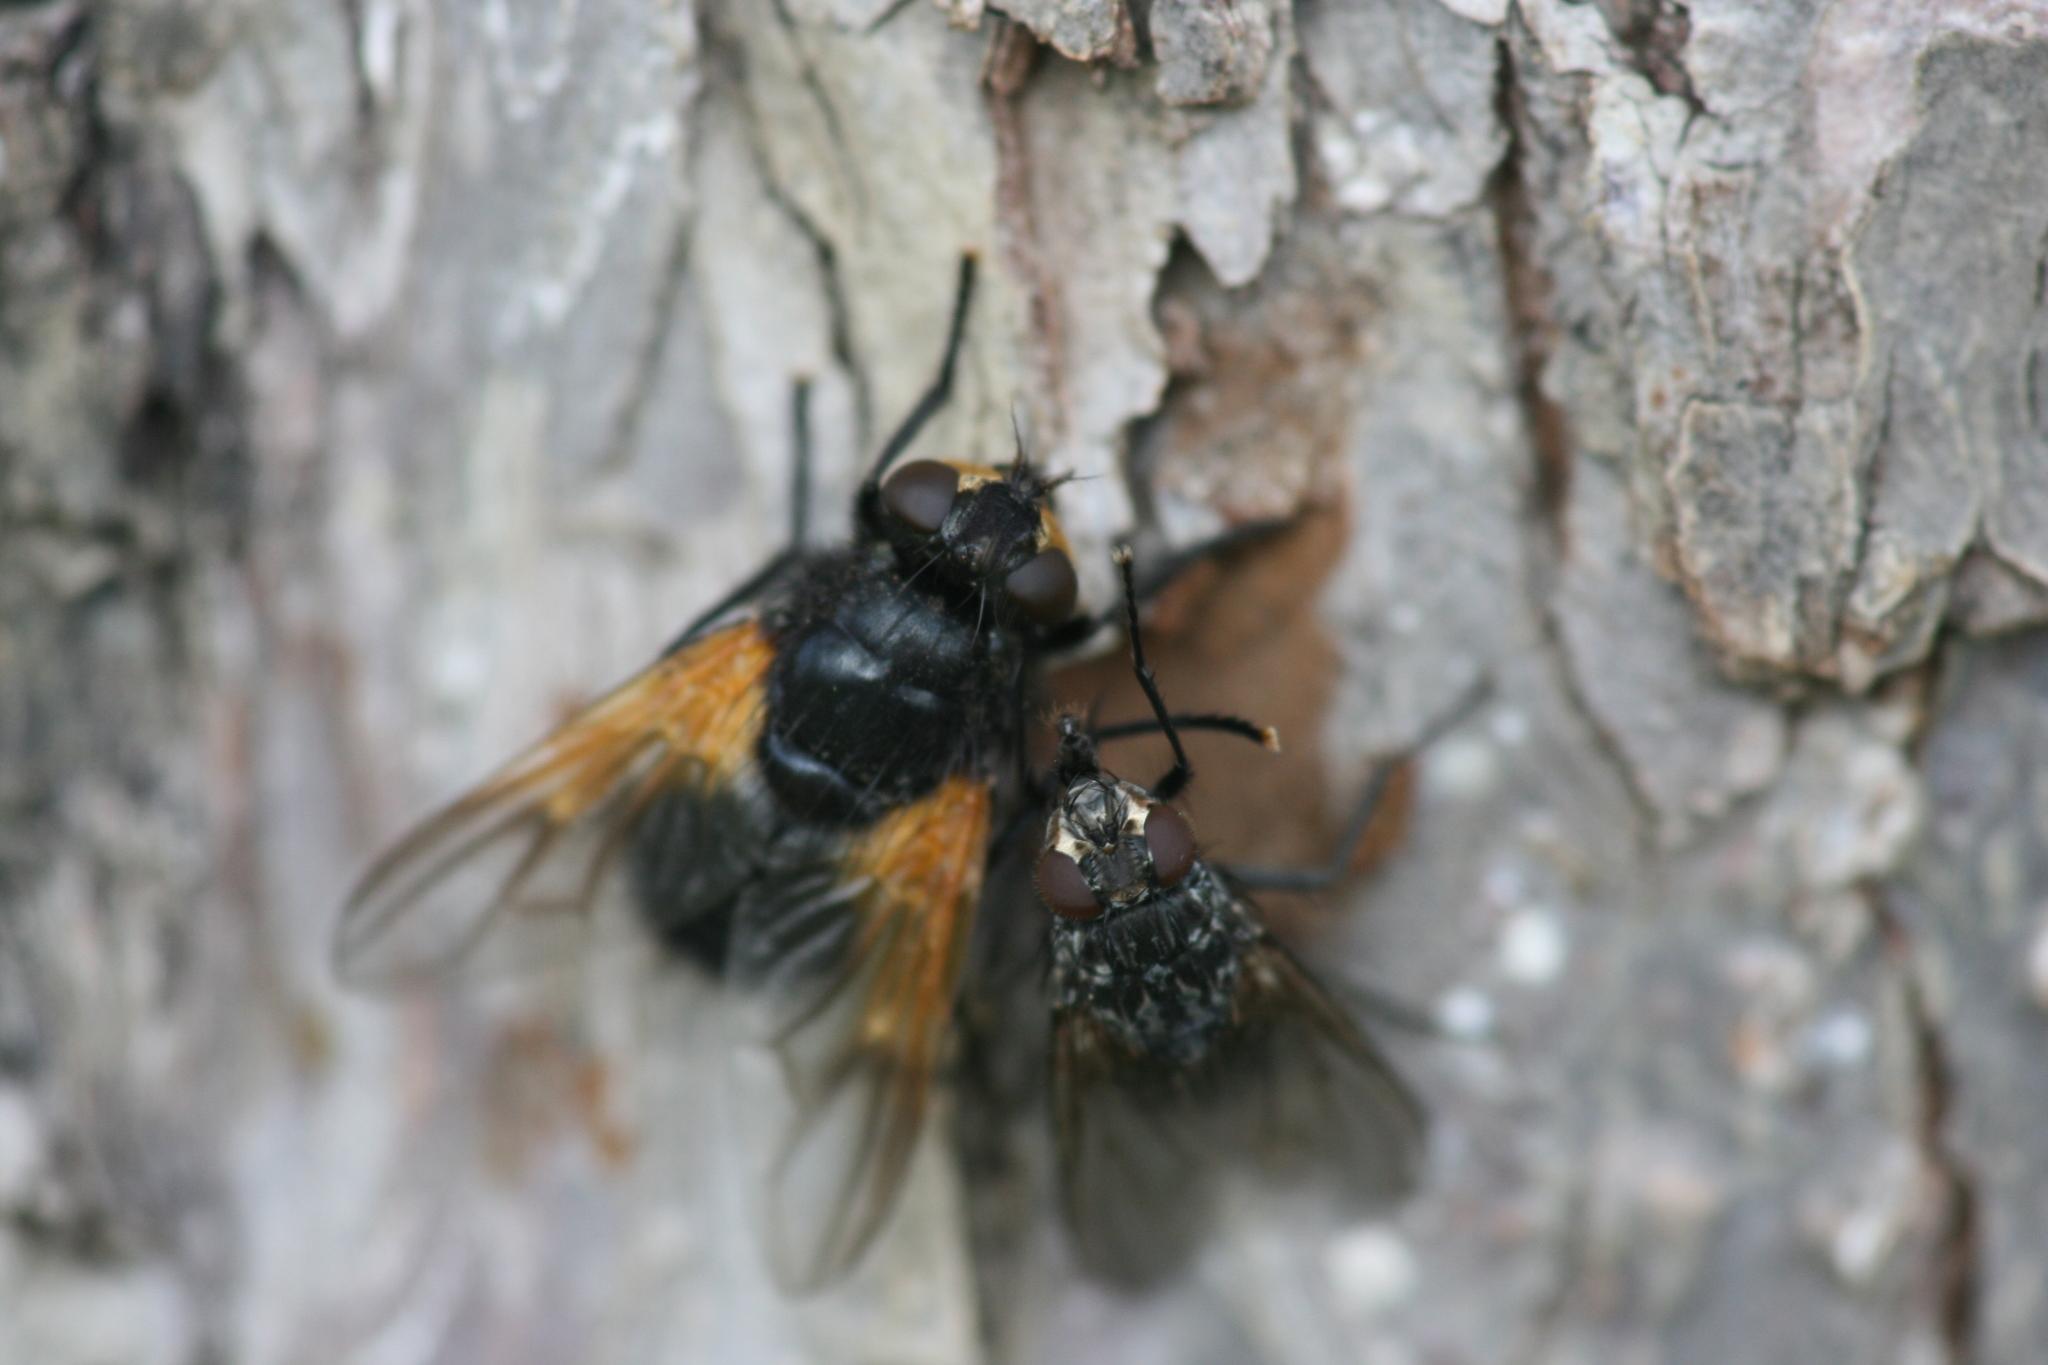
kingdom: Animalia
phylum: Arthropoda
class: Insecta
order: Diptera
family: Muscidae
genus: Polietes
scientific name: Polietes lardaria
